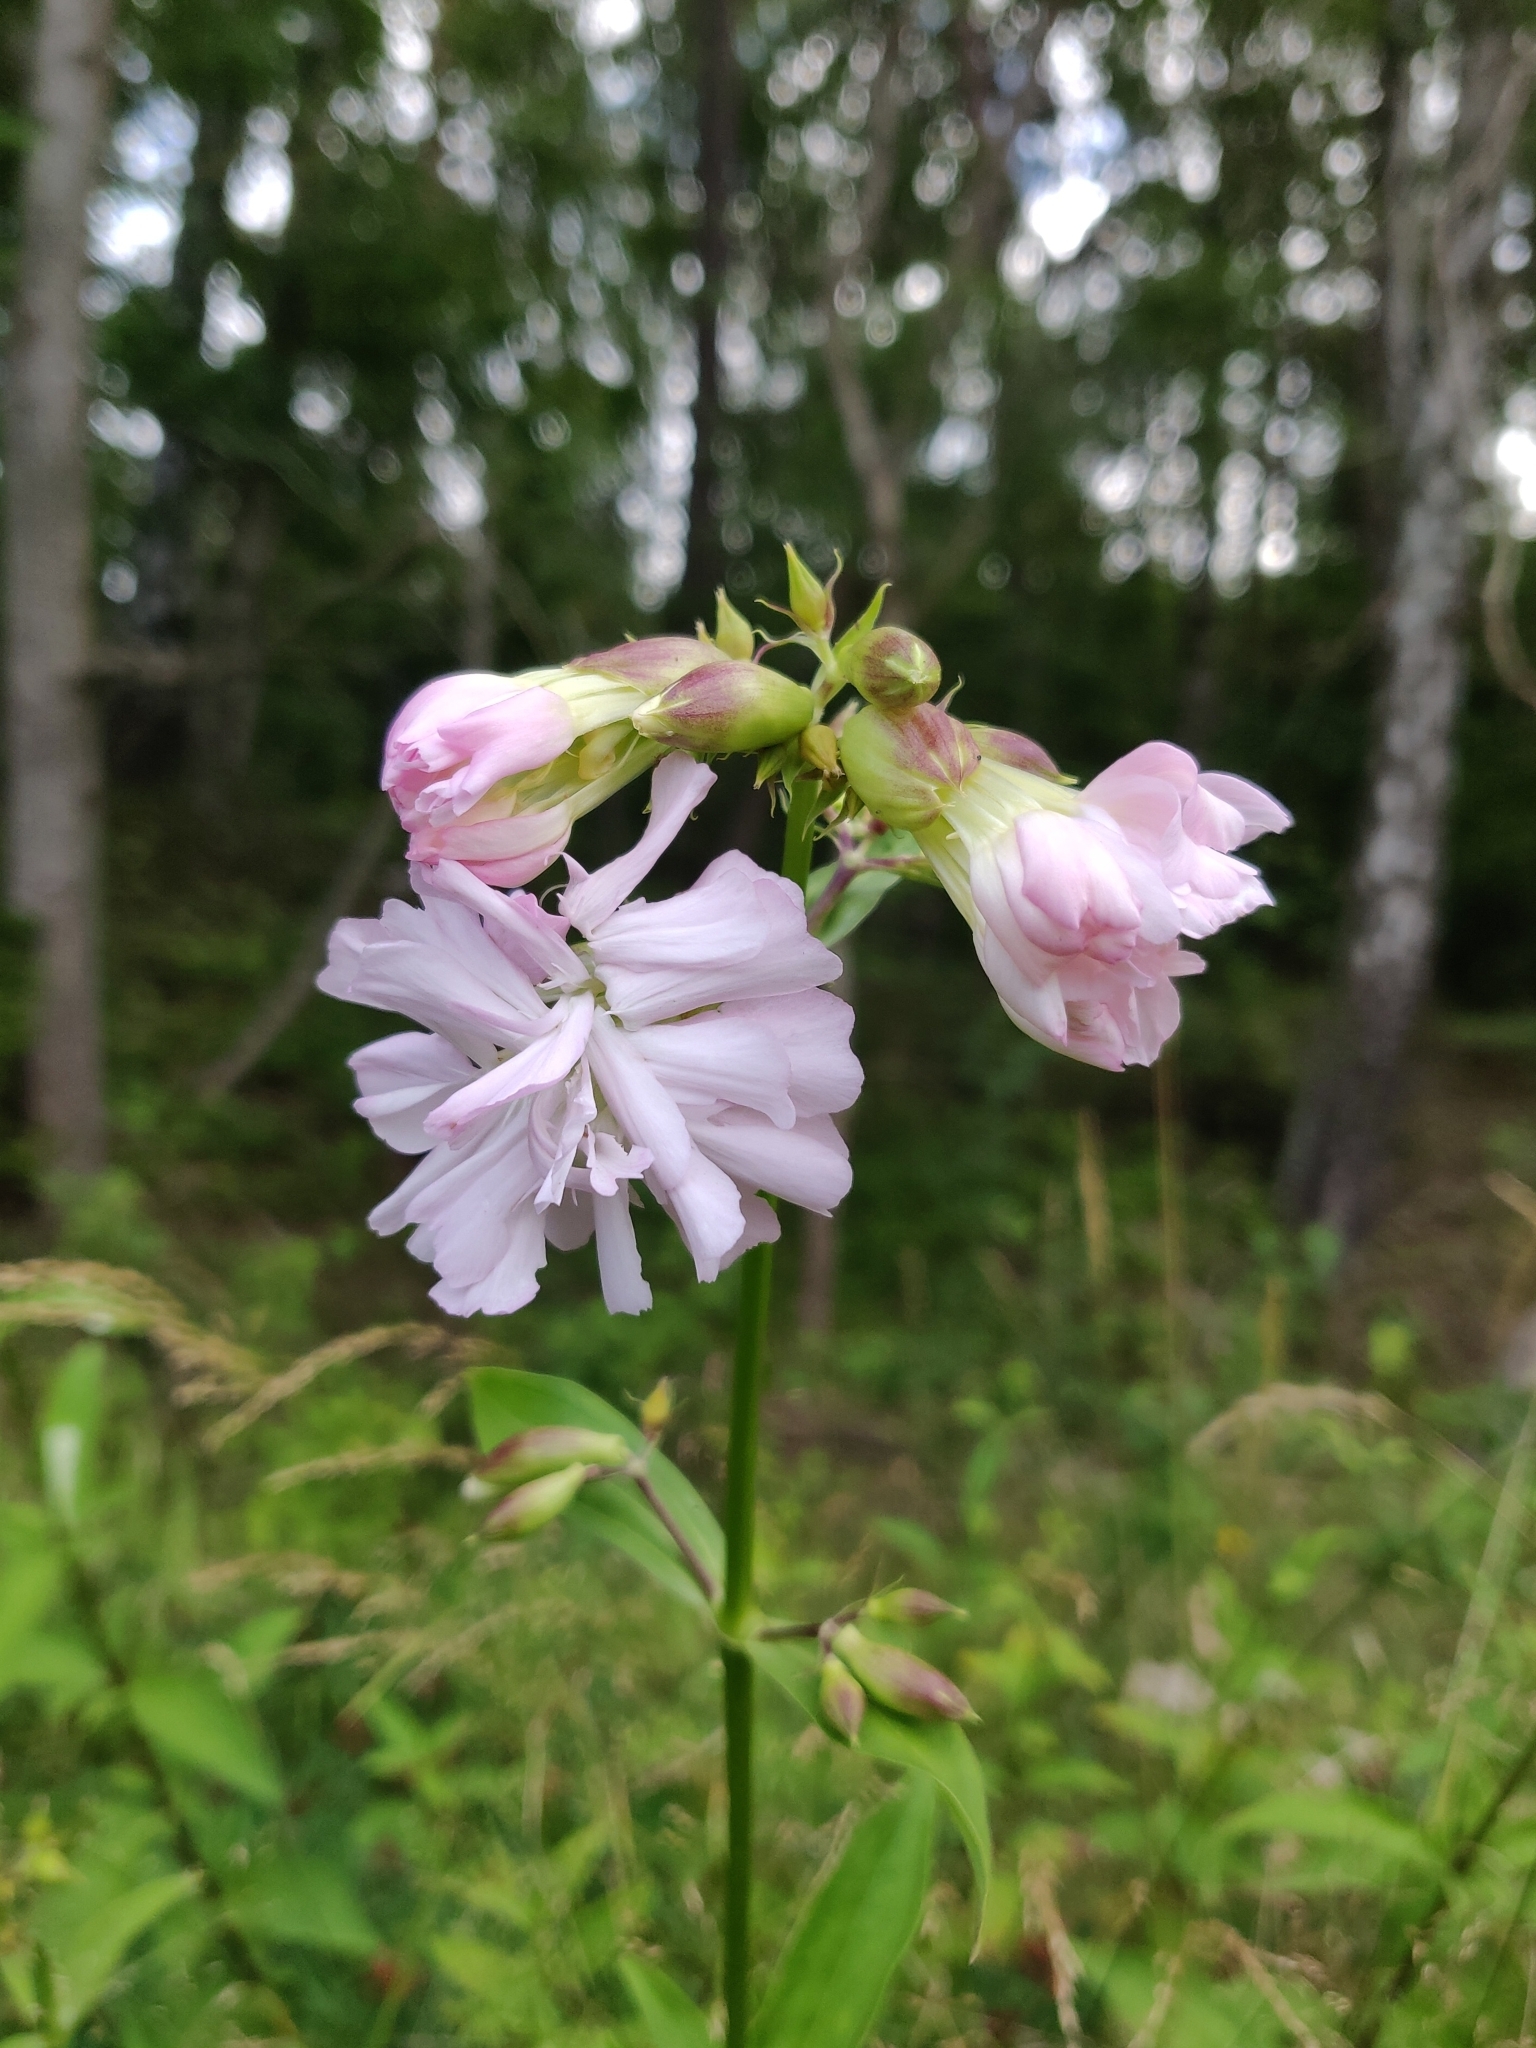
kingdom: Plantae
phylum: Tracheophyta
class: Magnoliopsida
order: Caryophyllales
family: Caryophyllaceae
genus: Saponaria
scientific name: Saponaria officinalis
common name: Soapwort
